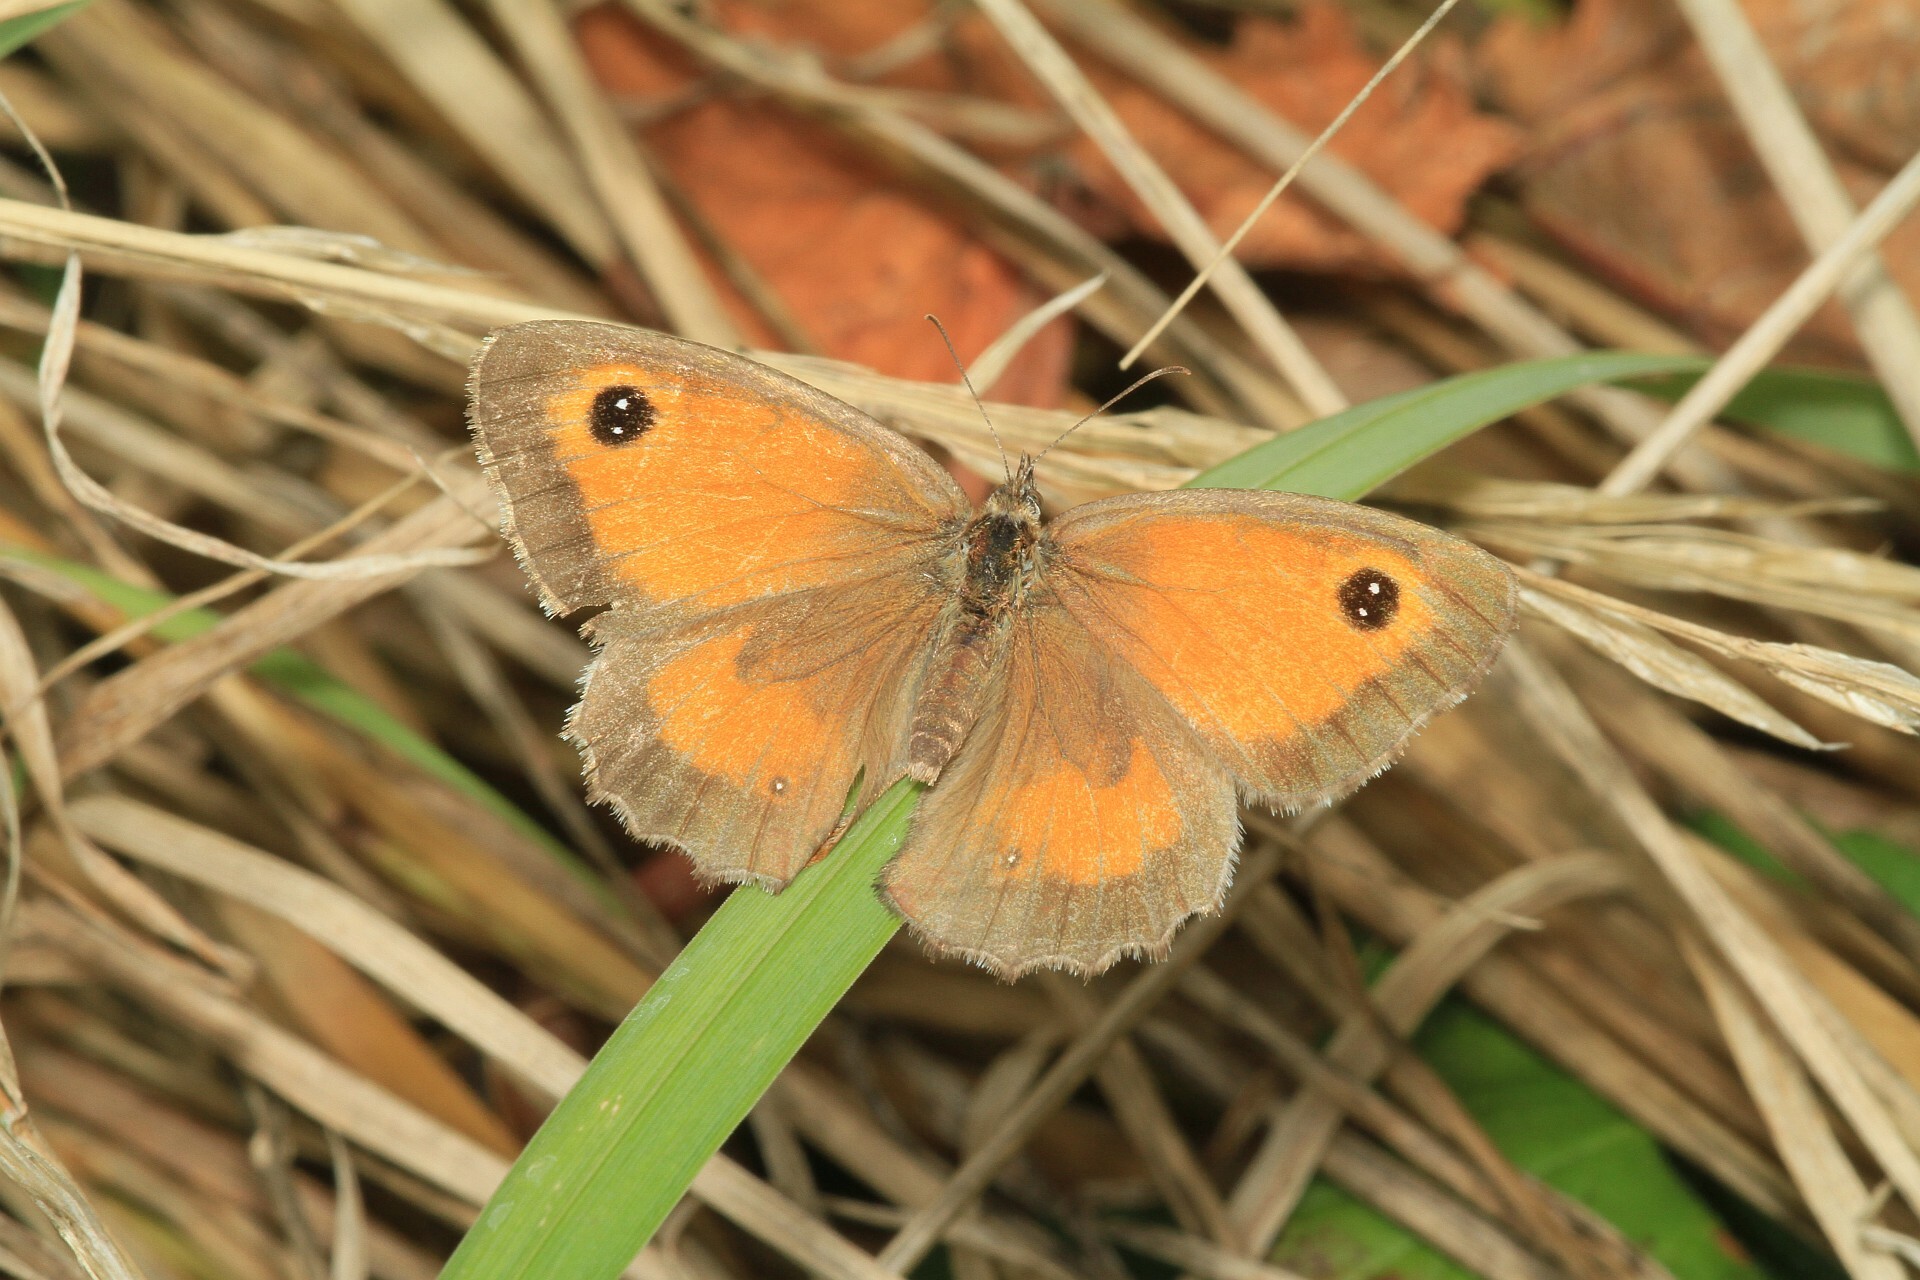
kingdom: Animalia
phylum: Arthropoda
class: Insecta
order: Lepidoptera
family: Nymphalidae
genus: Pyronia
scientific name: Pyronia tithonus
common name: Gatekeeper
